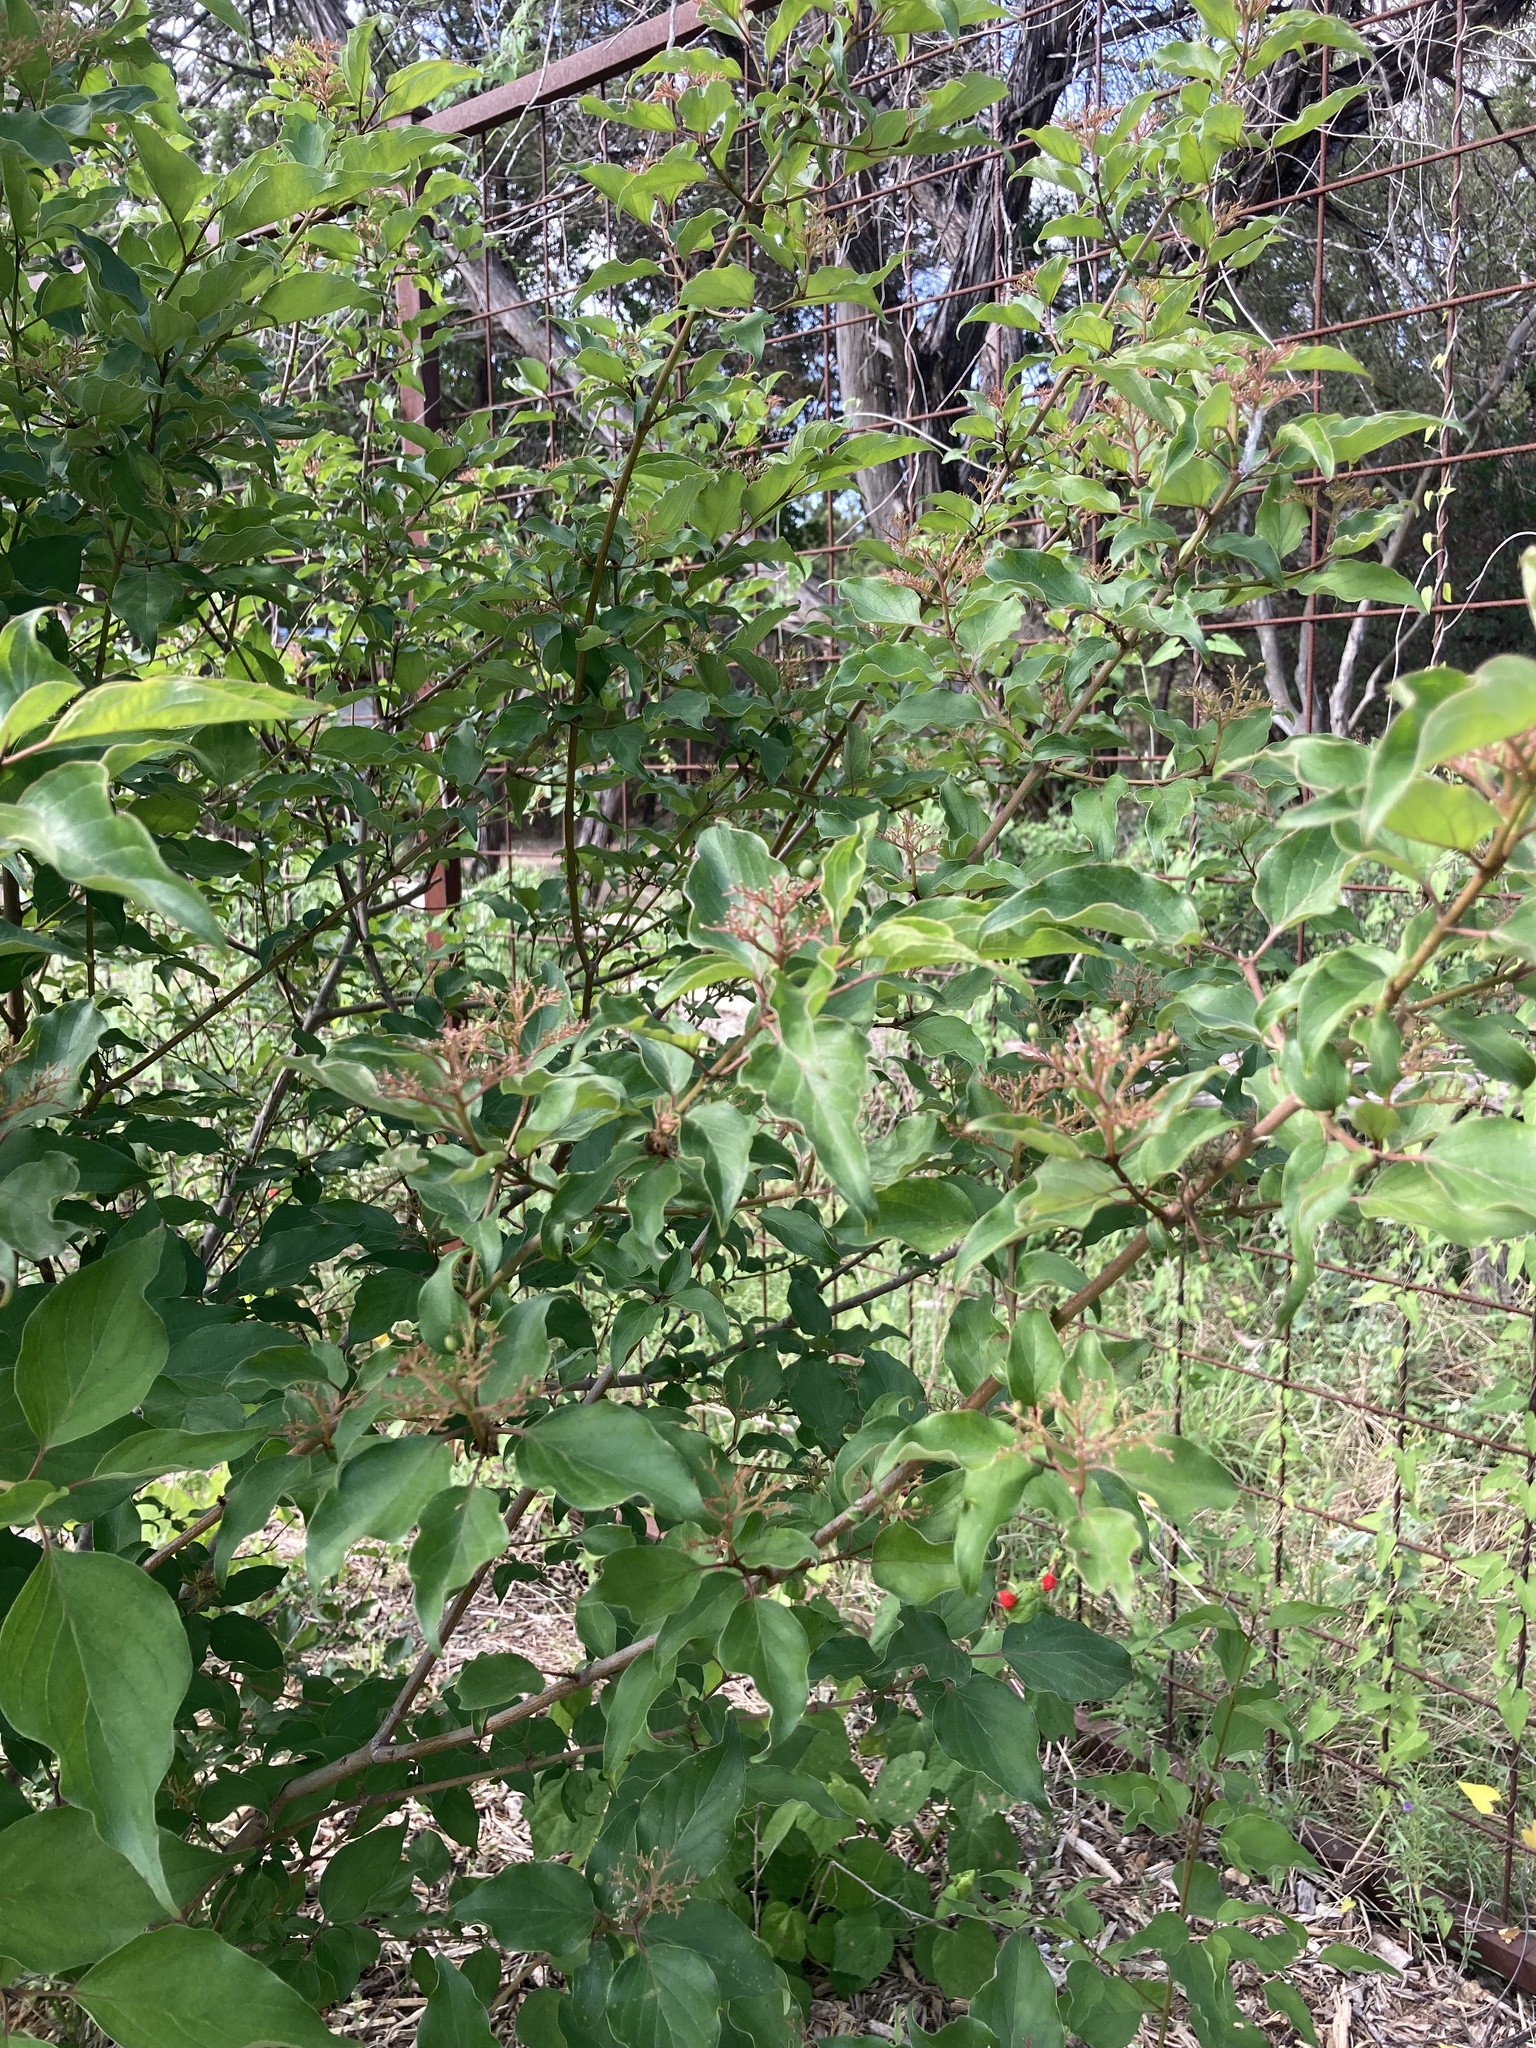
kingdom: Plantae
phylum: Tracheophyta
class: Magnoliopsida
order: Cornales
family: Cornaceae
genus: Cornus
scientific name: Cornus drummondii
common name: Rough-leaf dogwood
